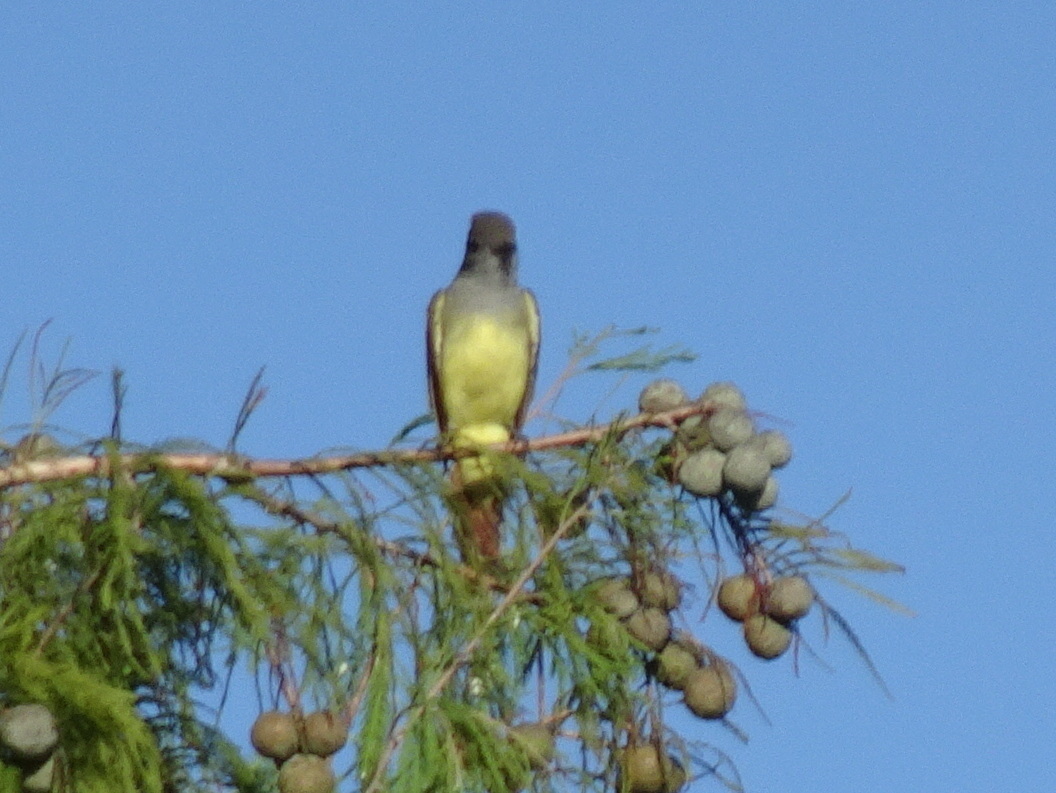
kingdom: Animalia
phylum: Chordata
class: Aves
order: Passeriformes
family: Tyrannidae
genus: Myiarchus
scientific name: Myiarchus crinitus
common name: Great crested flycatcher
